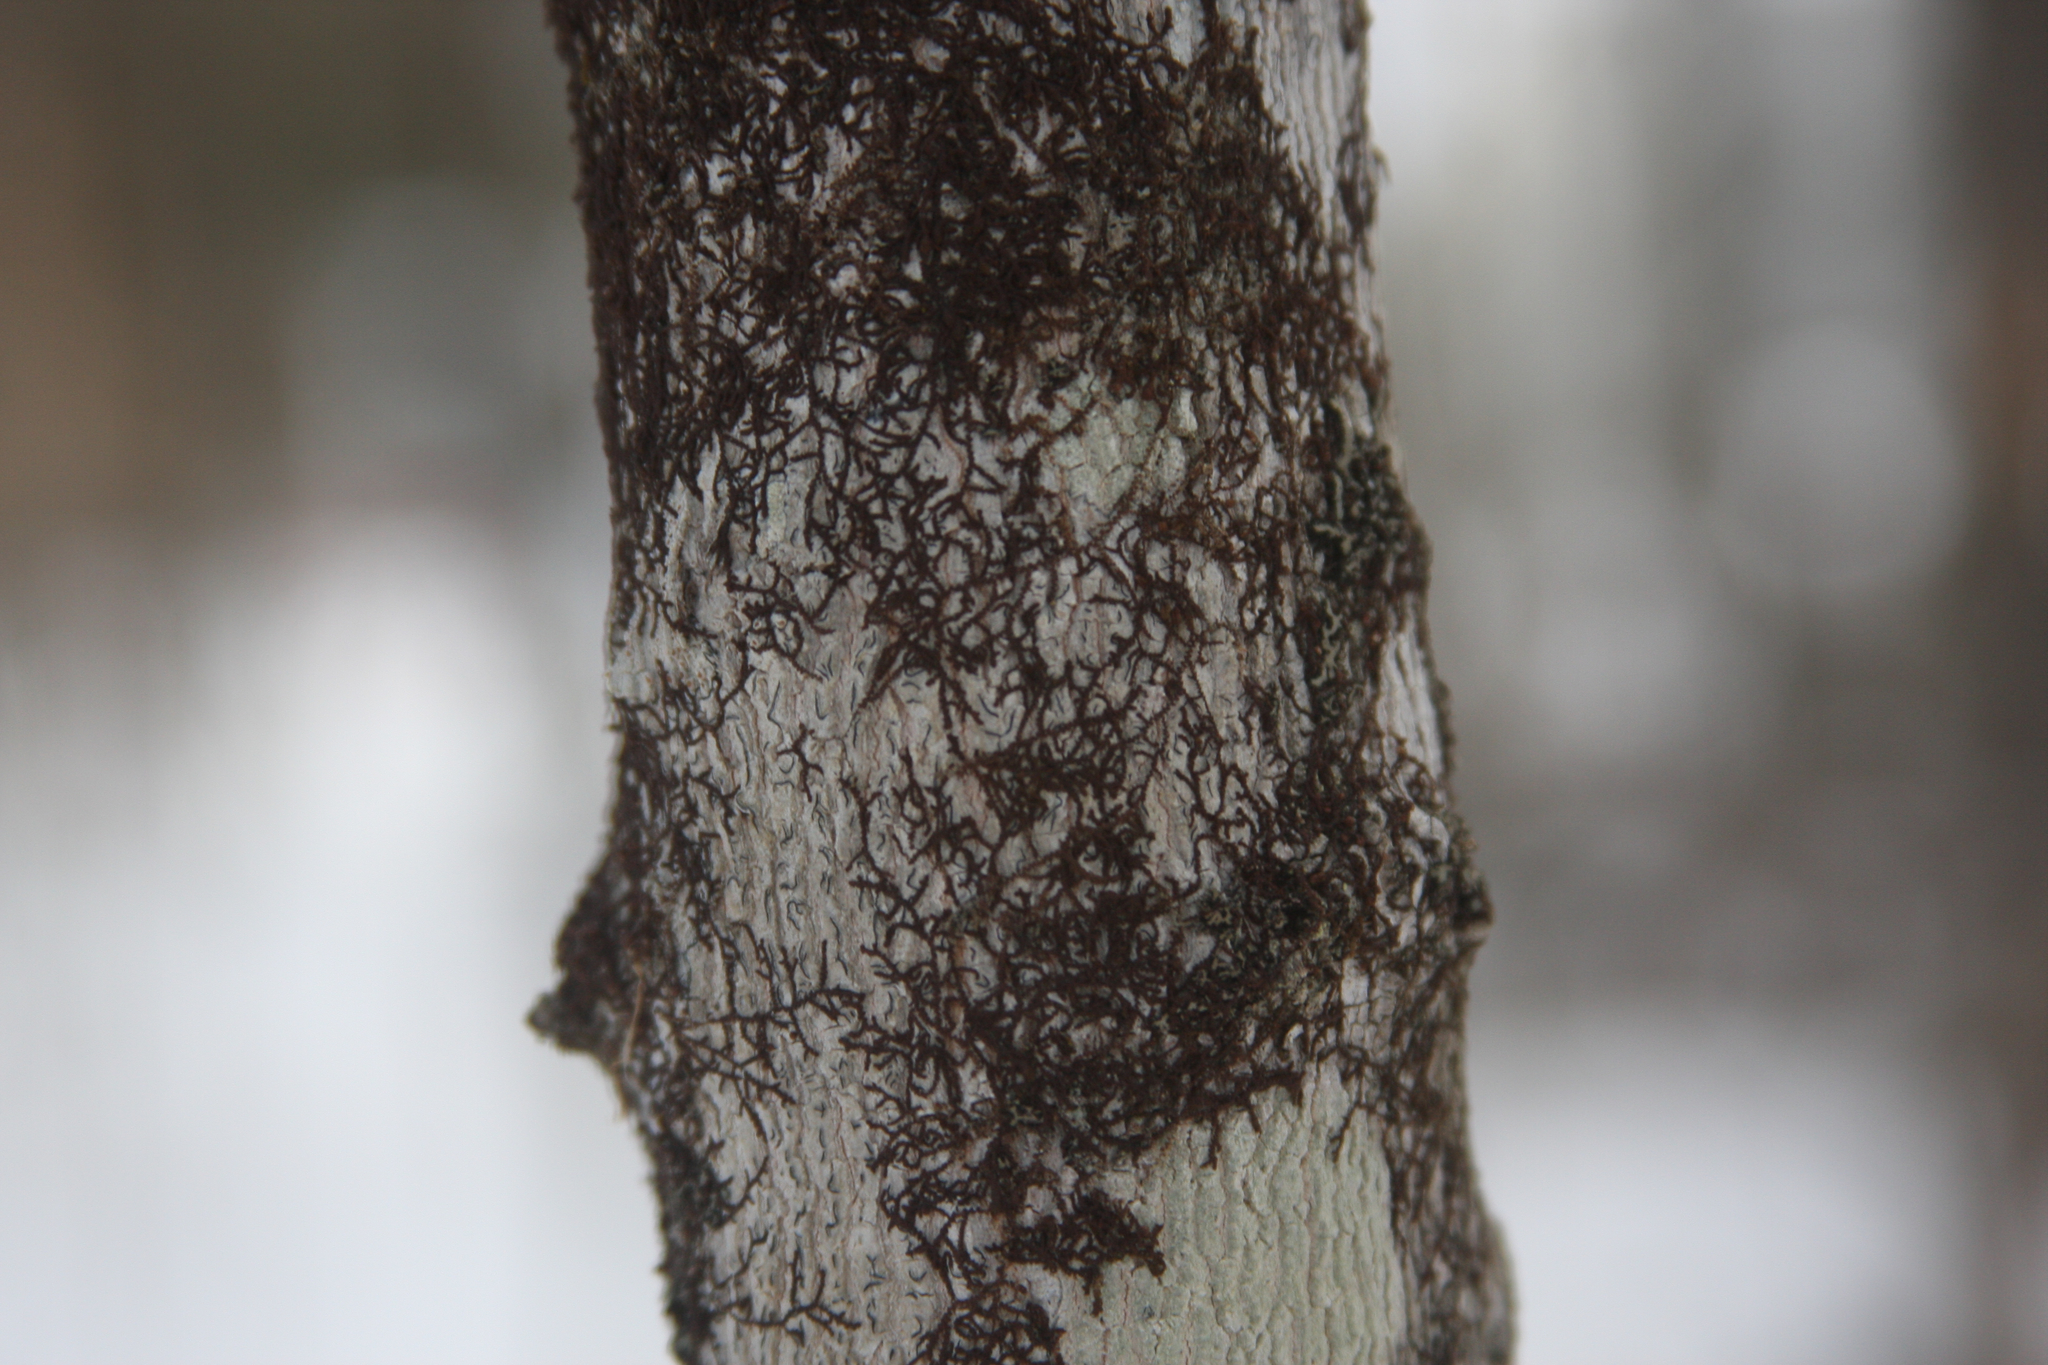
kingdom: Plantae
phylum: Marchantiophyta
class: Jungermanniopsida
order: Porellales
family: Frullaniaceae
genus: Frullania
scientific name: Frullania eboracensis
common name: New york scalewort
